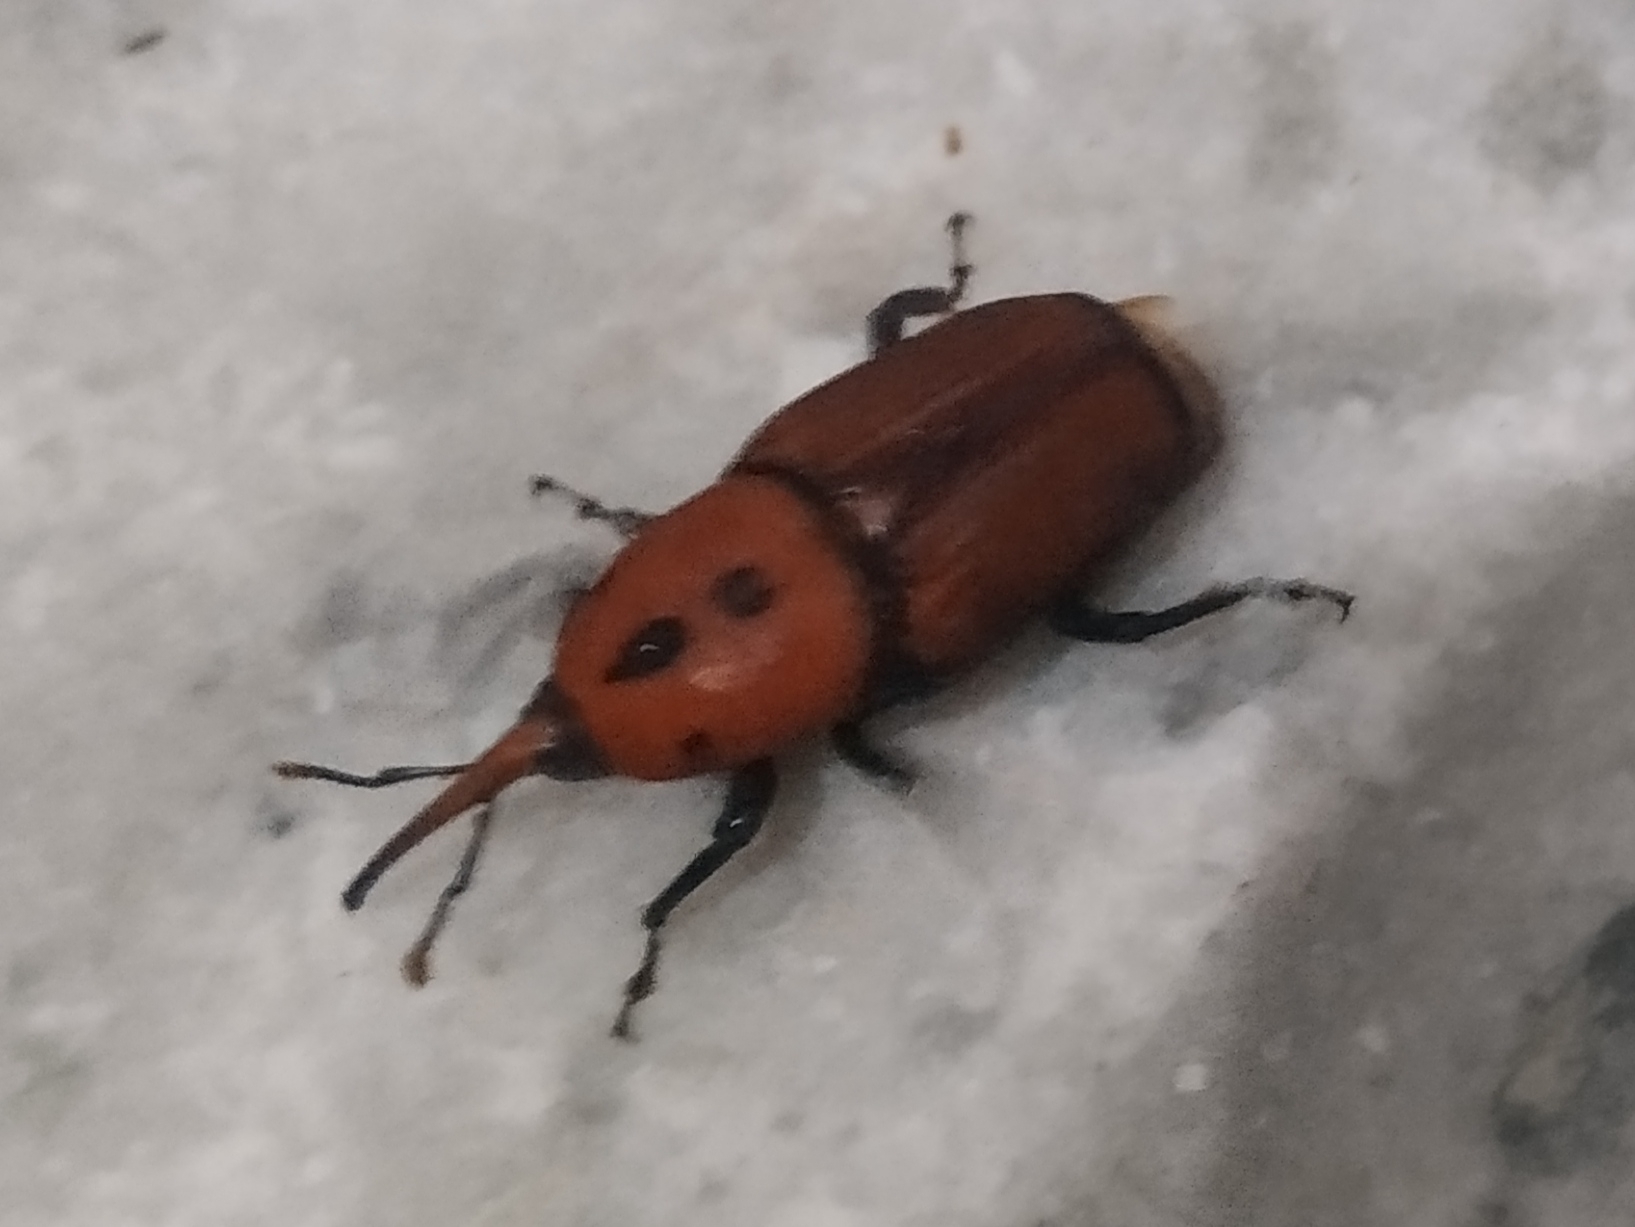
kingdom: Animalia
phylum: Arthropoda
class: Insecta
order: Coleoptera
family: Dryophthoridae
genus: Rhynchophorus
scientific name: Rhynchophorus ferrugineus
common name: Red palm weevil
